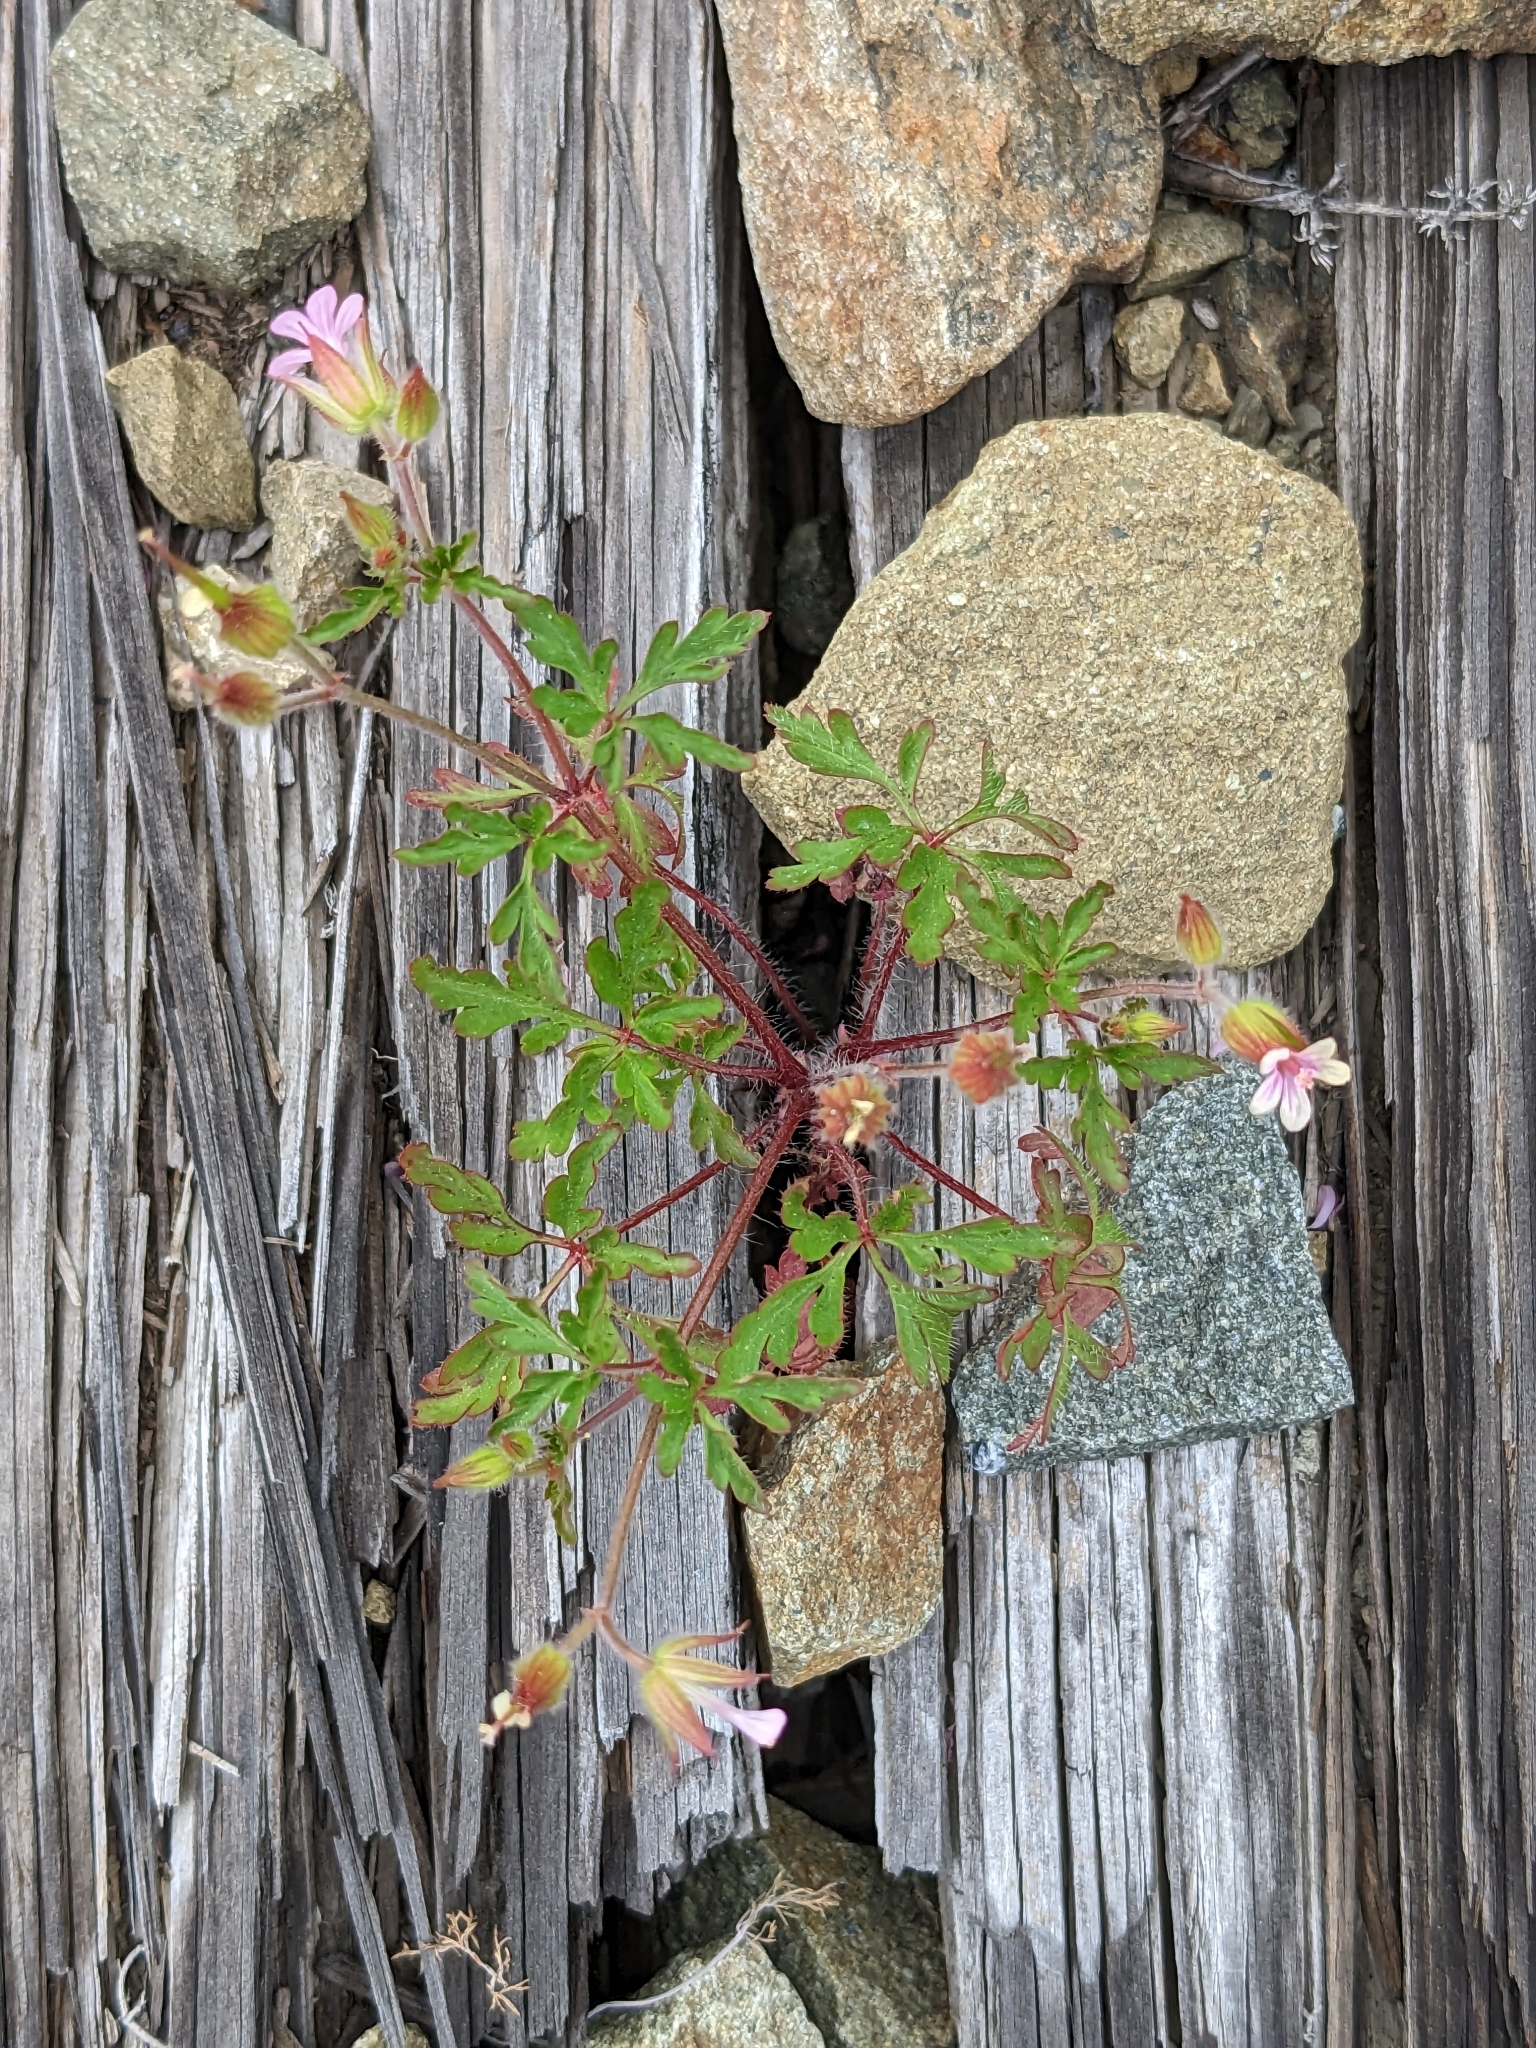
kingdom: Plantae
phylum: Tracheophyta
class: Magnoliopsida
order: Geraniales
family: Geraniaceae
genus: Geranium
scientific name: Geranium purpureum
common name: Little-robin
